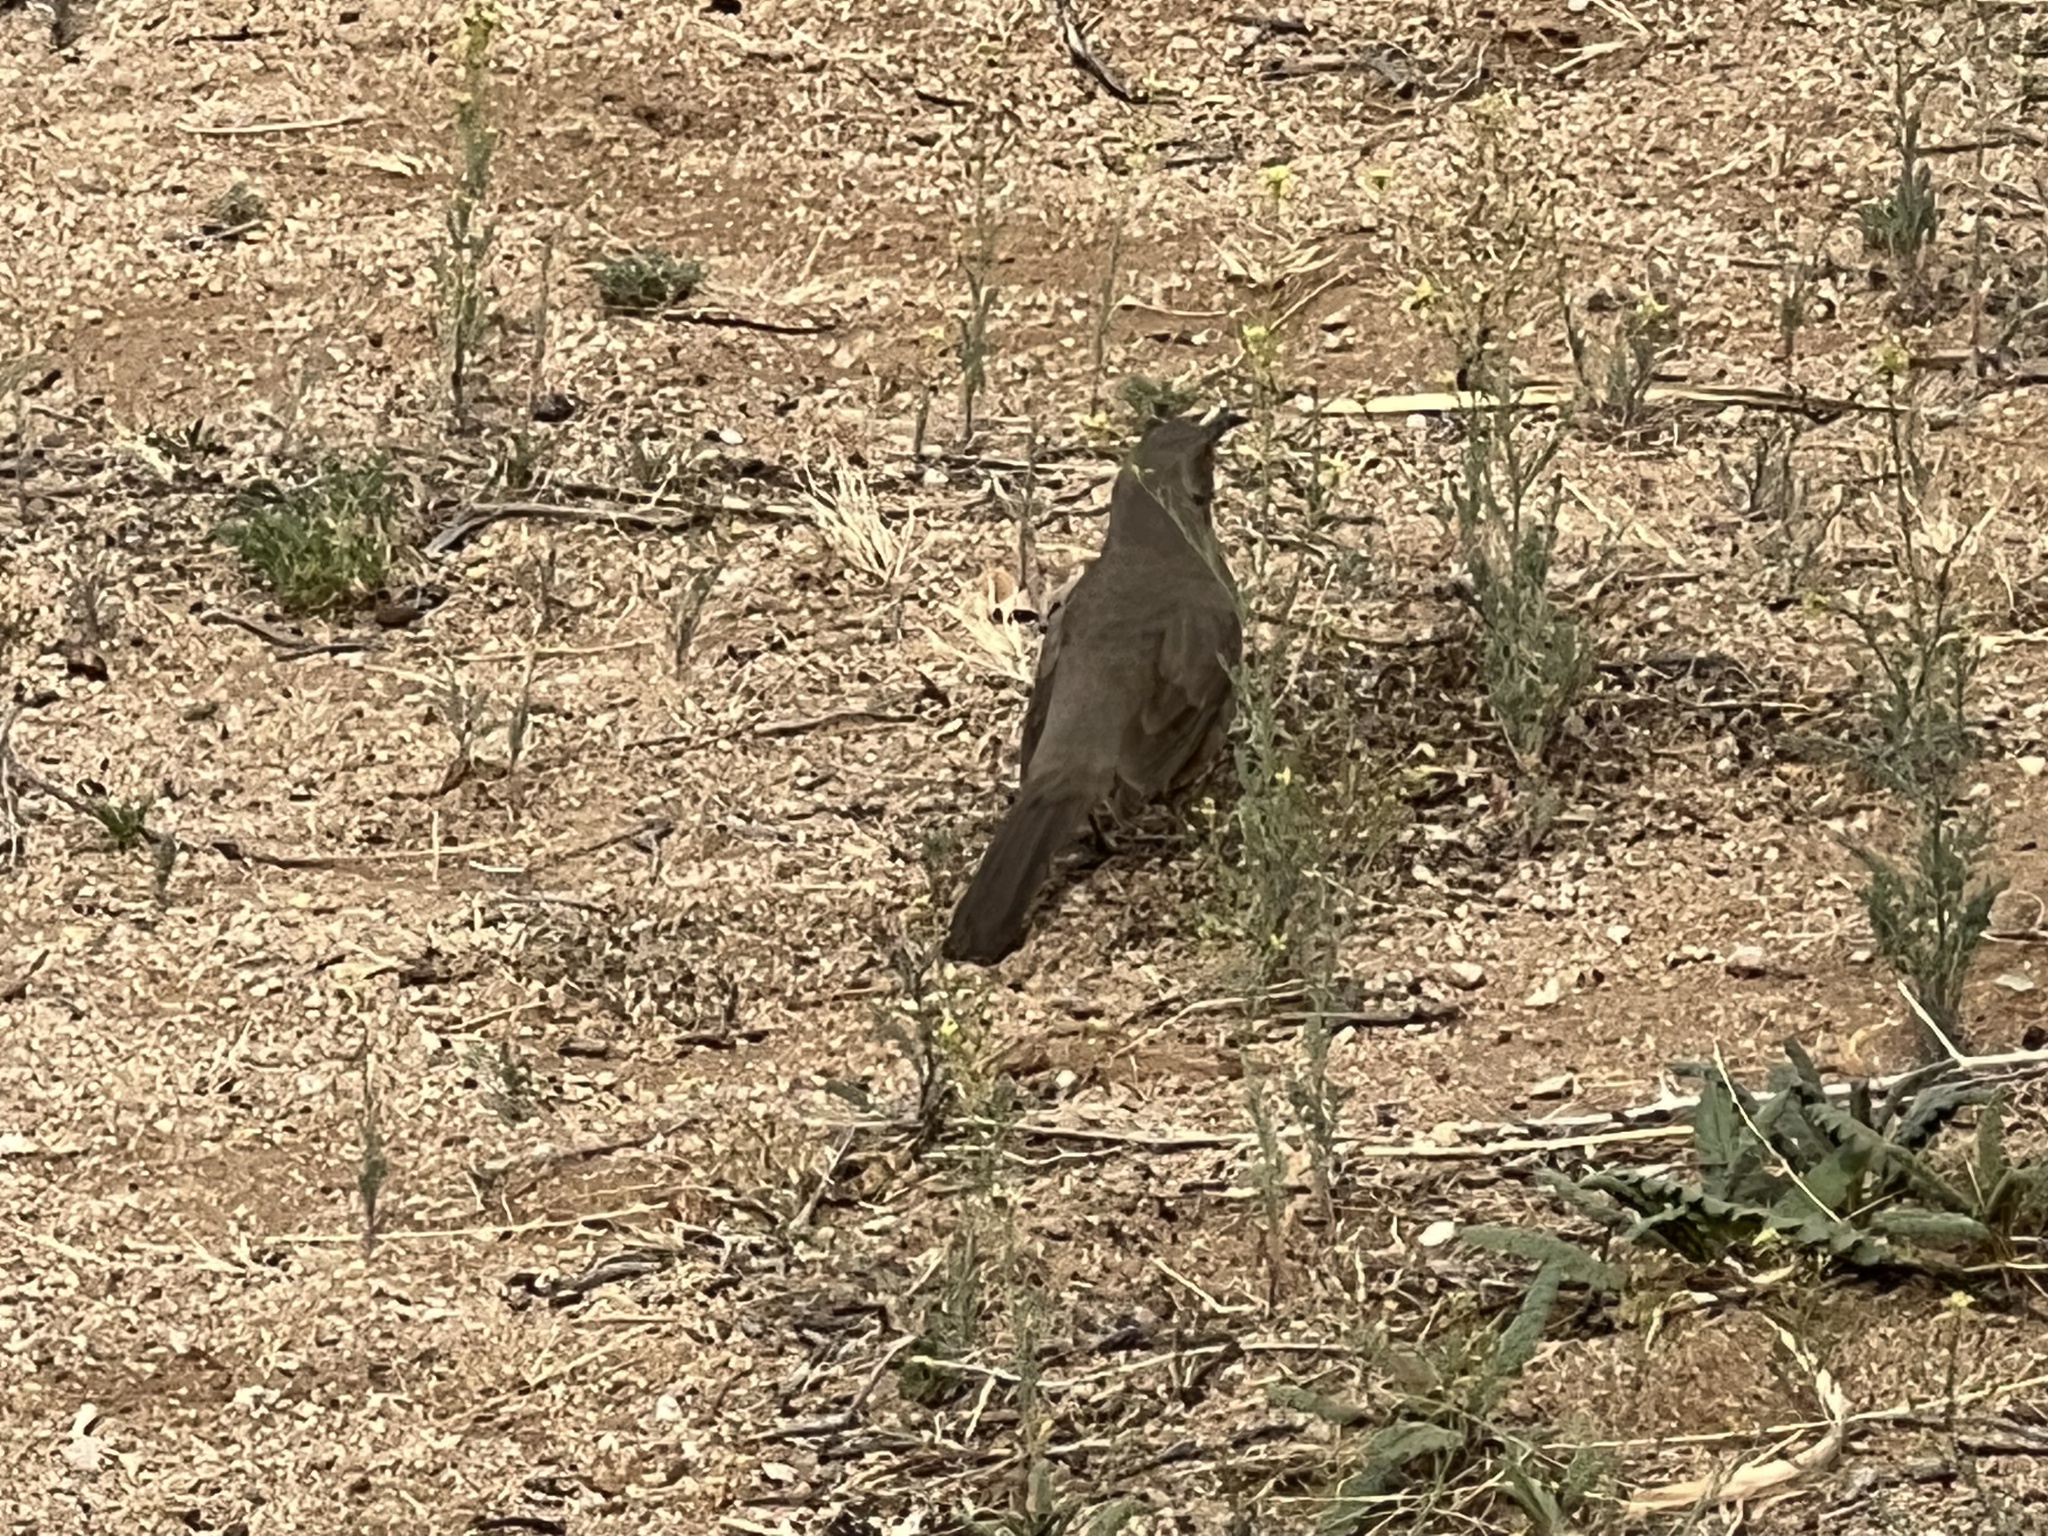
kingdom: Animalia
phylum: Chordata
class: Aves
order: Passeriformes
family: Mimidae
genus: Toxostoma
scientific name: Toxostoma curvirostre
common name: Curve-billed thrasher
